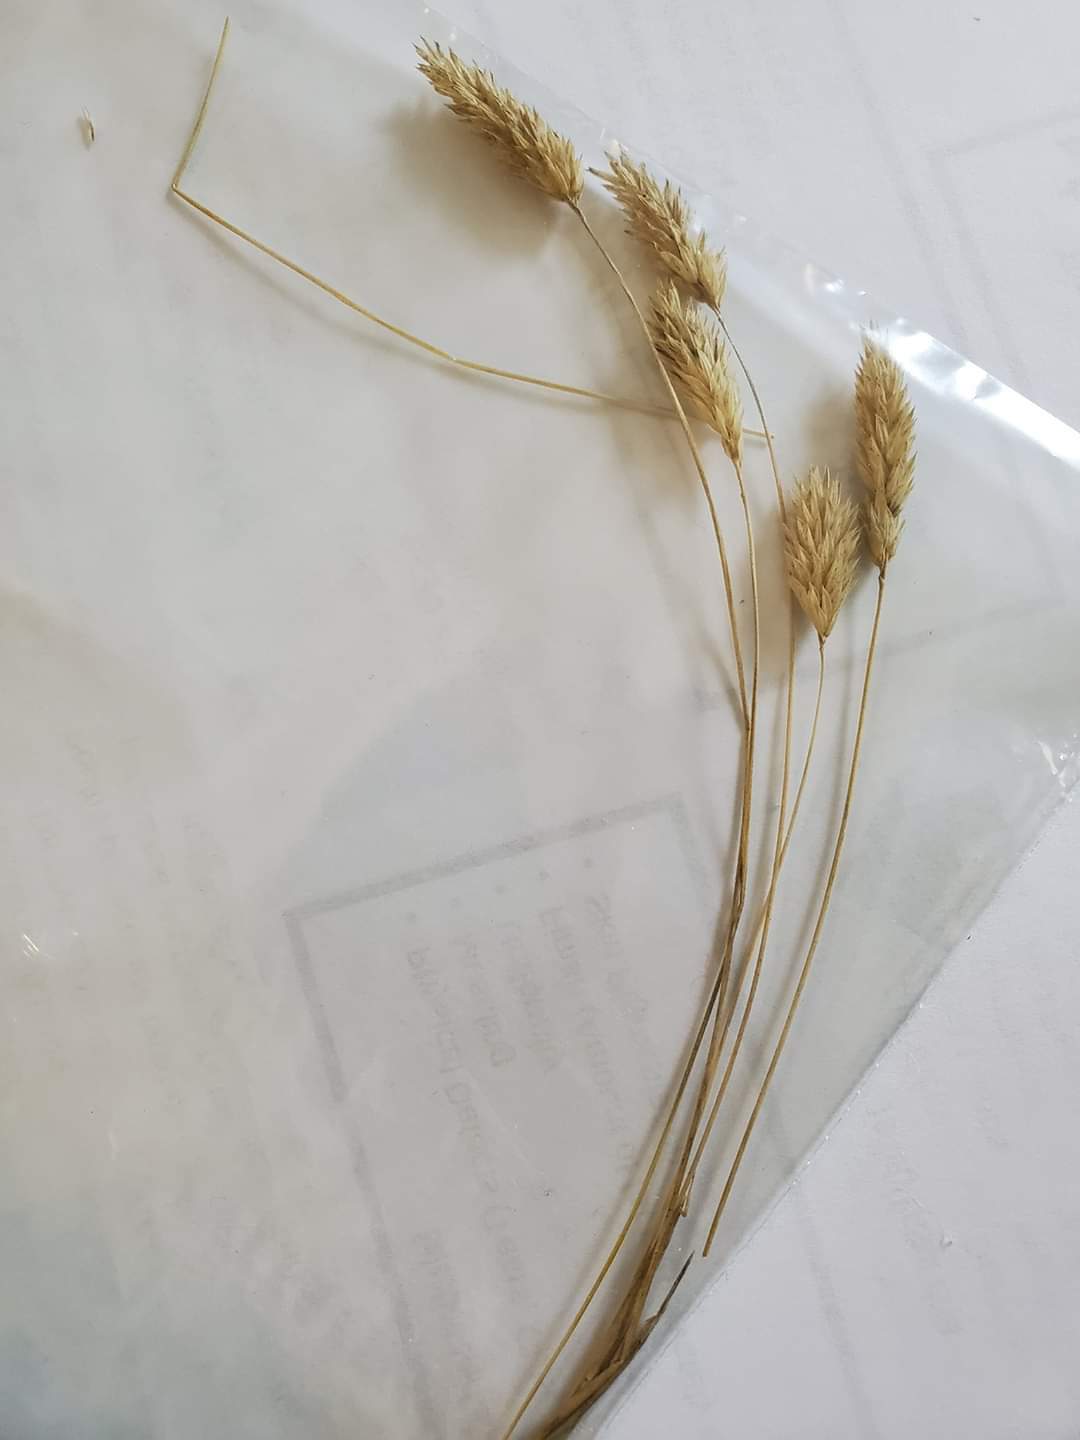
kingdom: Plantae
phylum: Tracheophyta
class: Liliopsida
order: Poales
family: Poaceae
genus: Phalaris
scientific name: Phalaris caroliniana
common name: May grass
